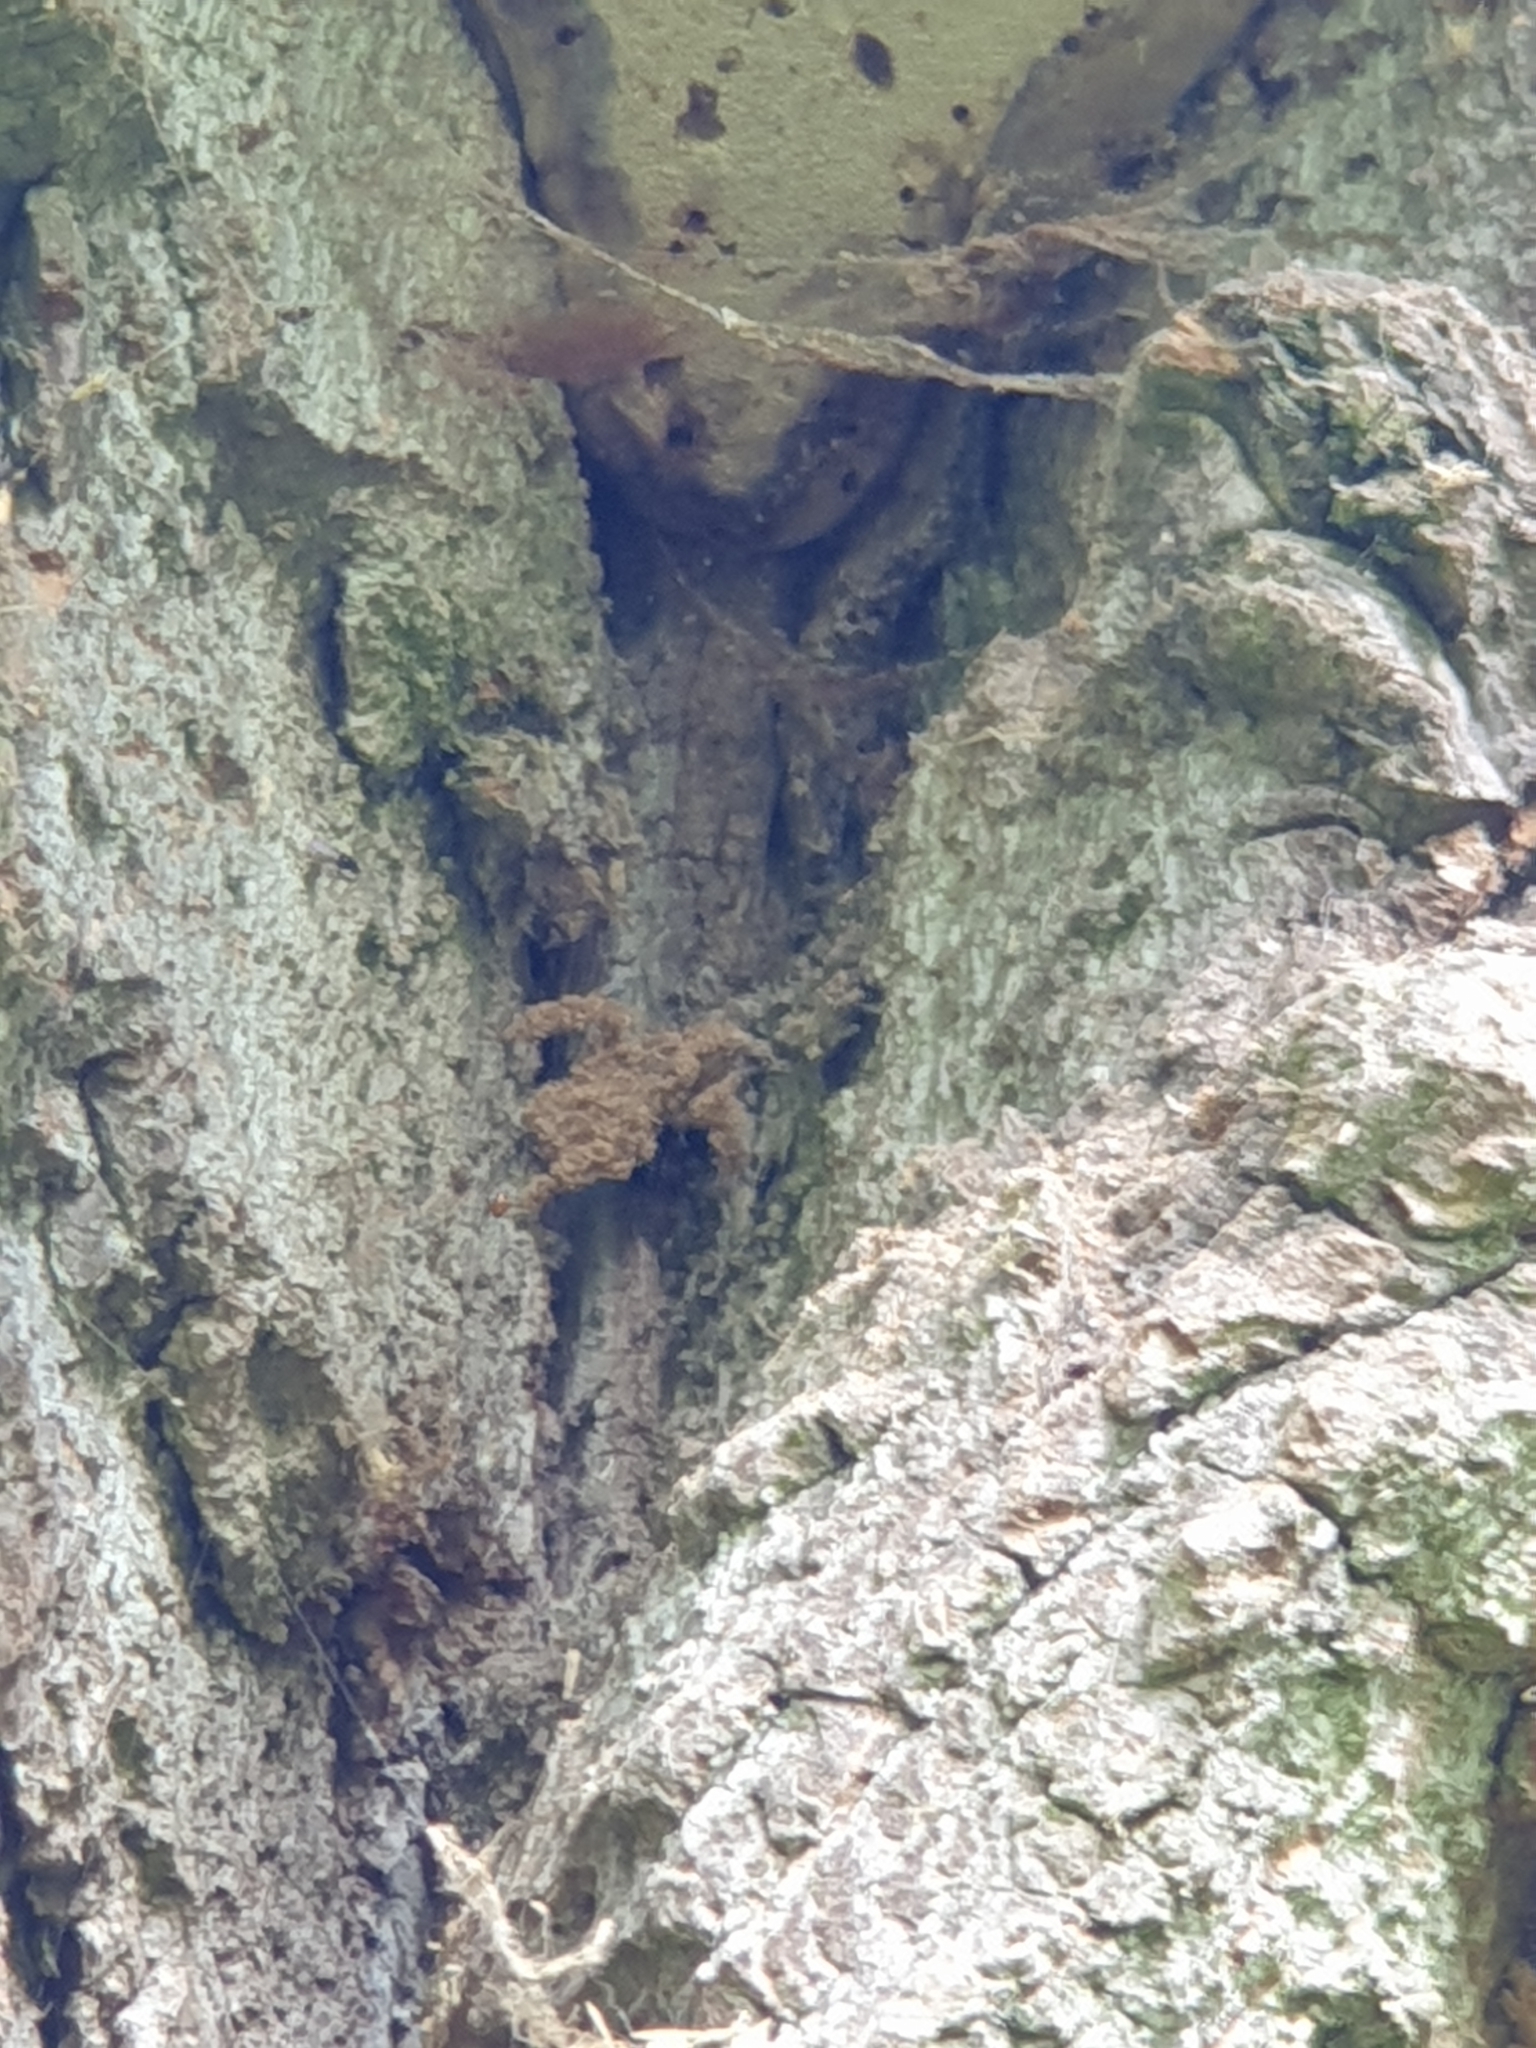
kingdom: Animalia
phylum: Arthropoda
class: Insecta
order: Hemiptera
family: Reduviidae
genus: Reduvius
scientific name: Reduvius personatus
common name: Masked hunter
